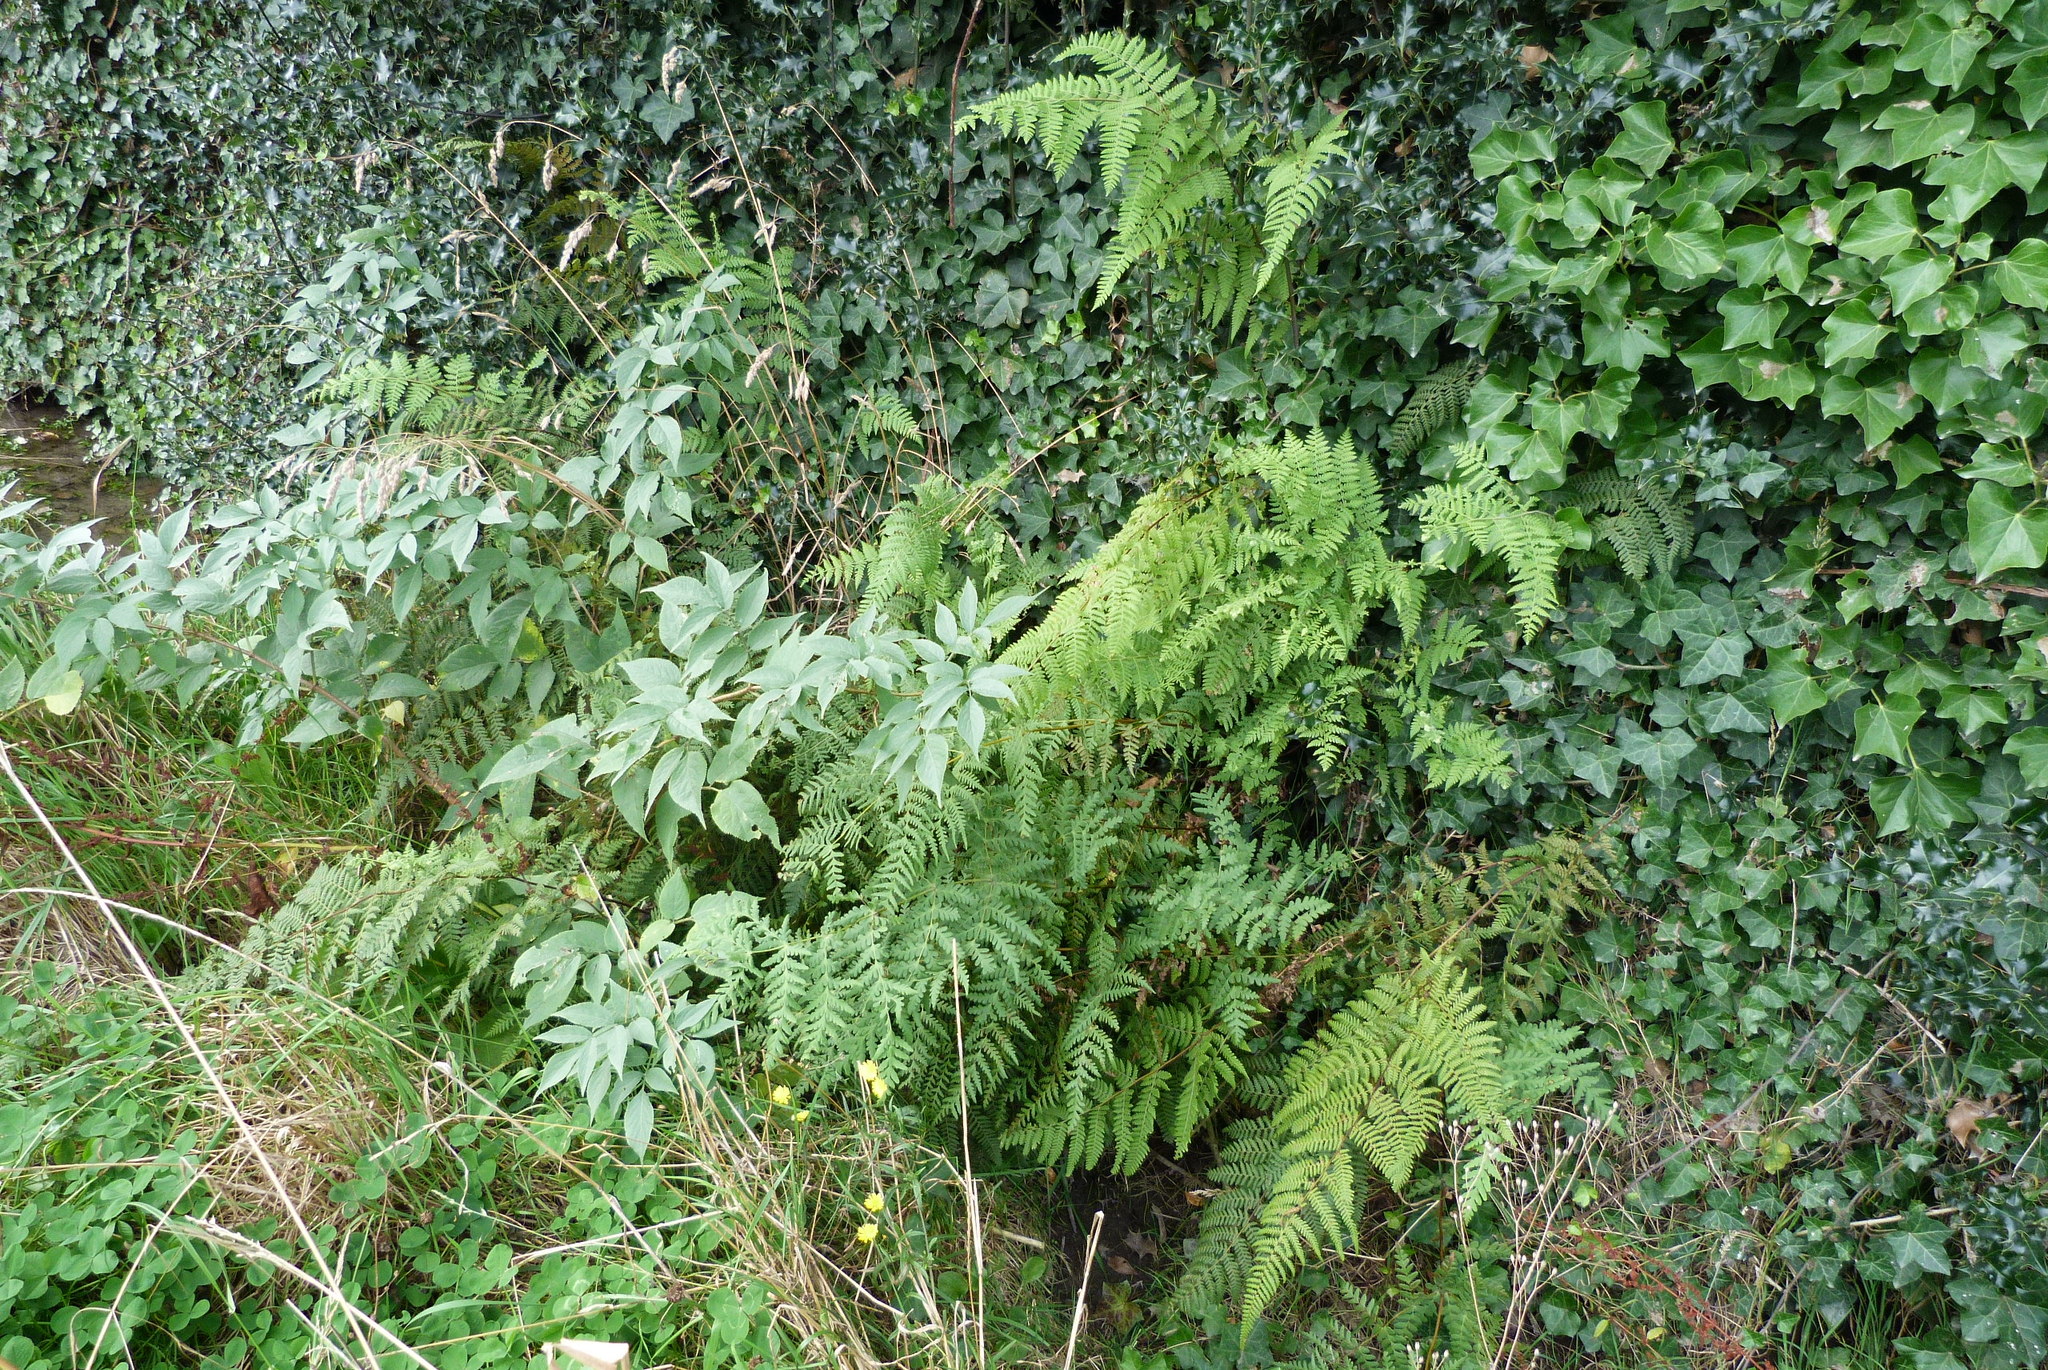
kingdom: Plantae
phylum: Tracheophyta
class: Polypodiopsida
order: Polypodiales
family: Dennstaedtiaceae
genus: Hypolepis
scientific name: Hypolepis ambigua
